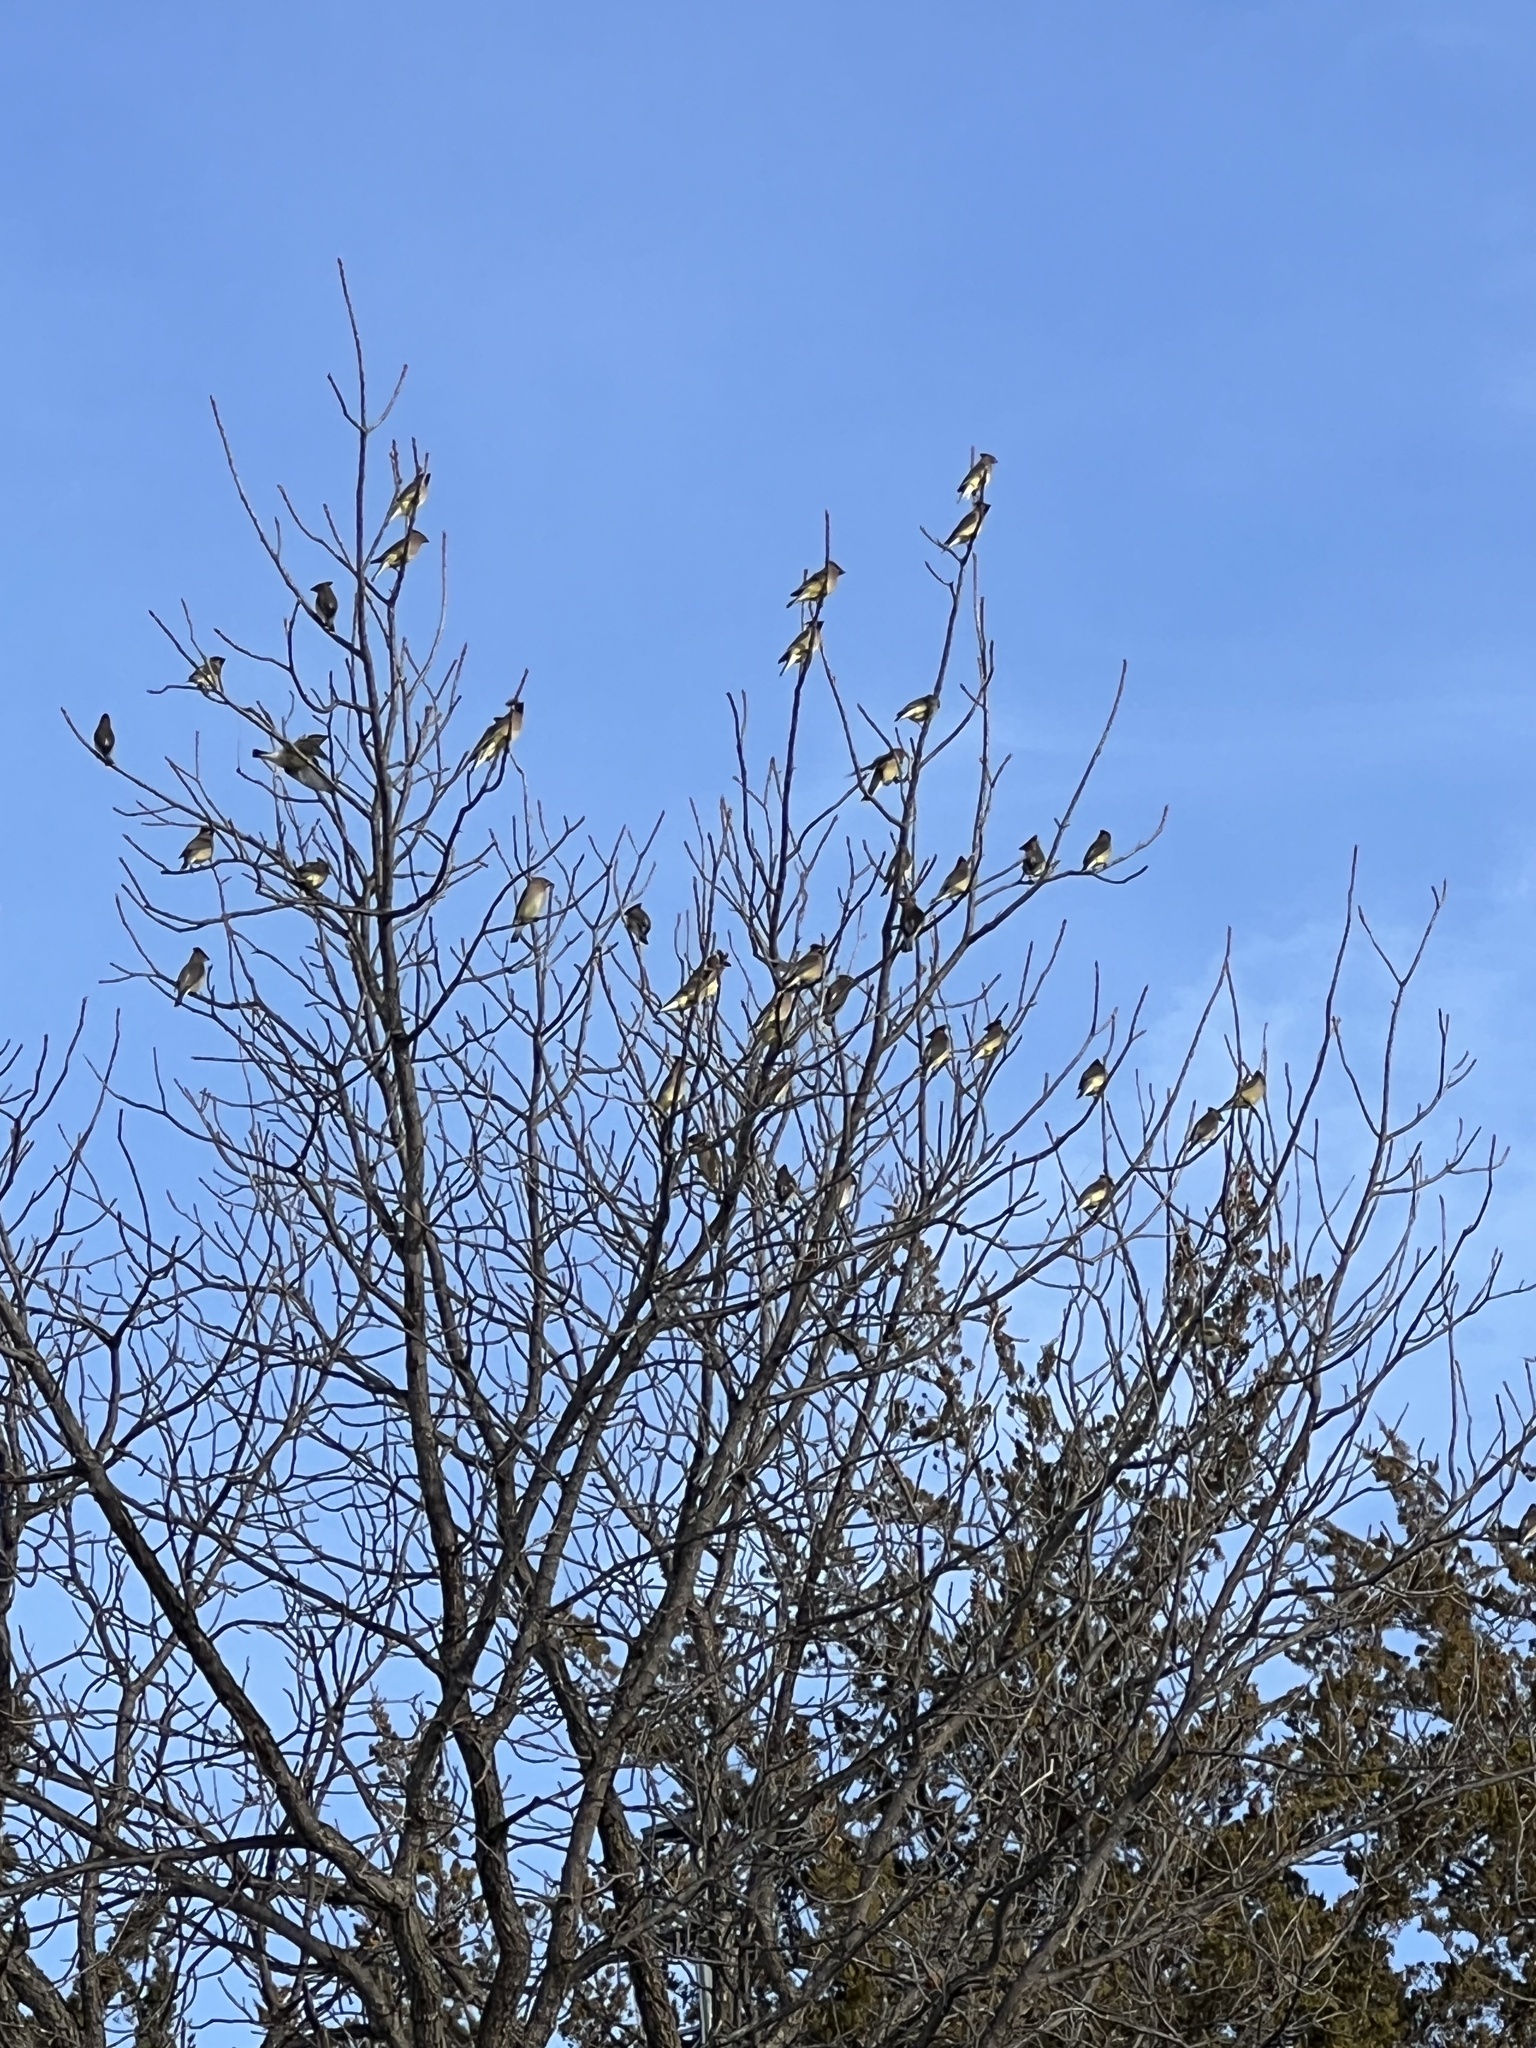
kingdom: Animalia
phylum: Chordata
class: Aves
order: Passeriformes
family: Bombycillidae
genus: Bombycilla
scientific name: Bombycilla cedrorum
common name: Cedar waxwing
